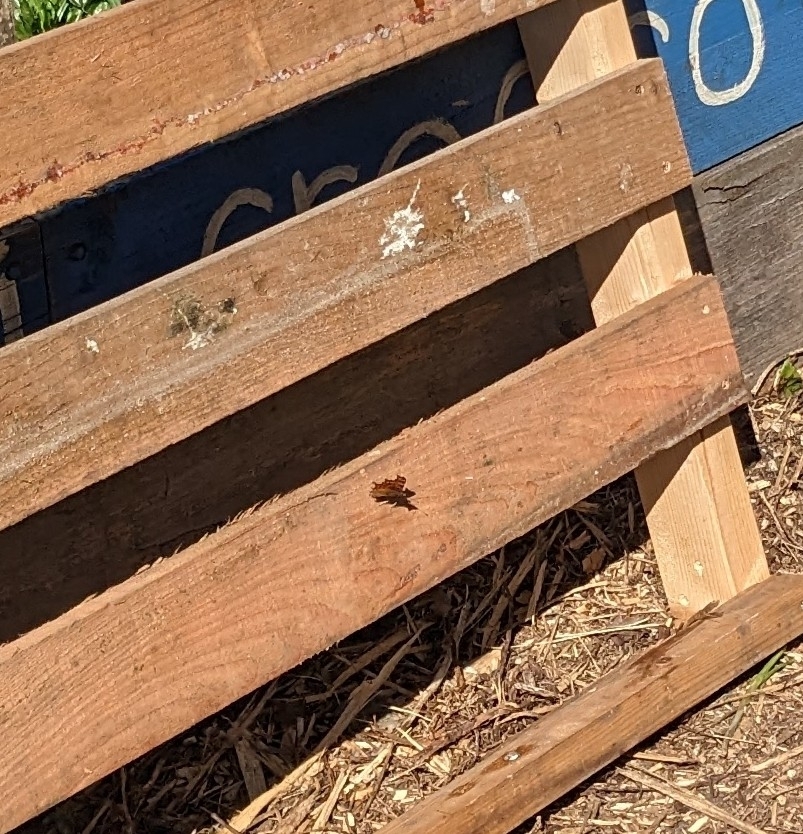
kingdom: Animalia
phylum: Arthropoda
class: Insecta
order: Lepidoptera
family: Nymphalidae
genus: Polygonia
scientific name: Polygonia c-album
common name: Comma
